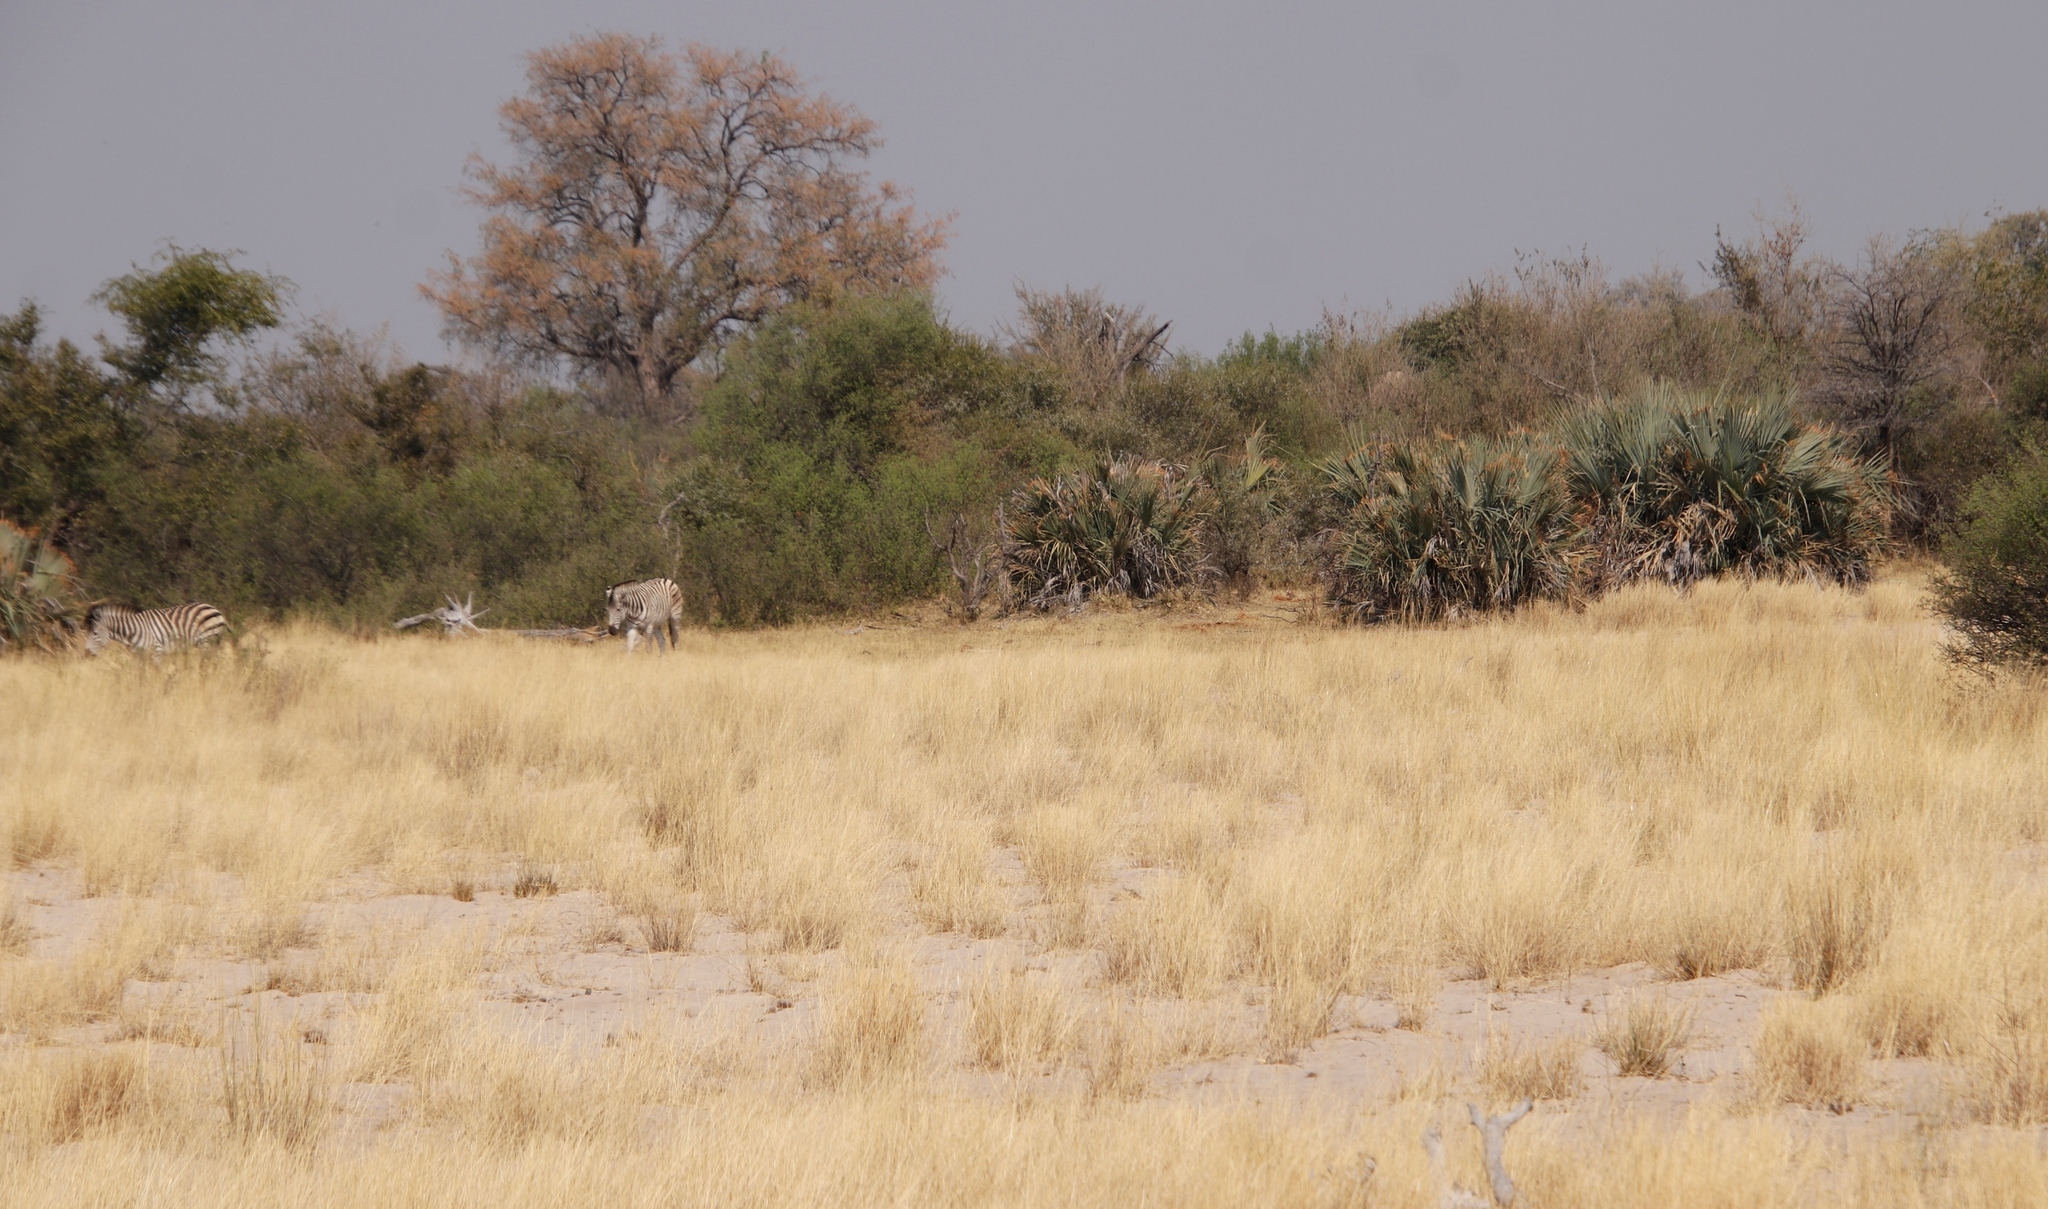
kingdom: Plantae
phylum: Tracheophyta
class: Liliopsida
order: Arecales
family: Arecaceae
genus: Hyphaene
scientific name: Hyphaene petersiana
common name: African ivory nut palm
